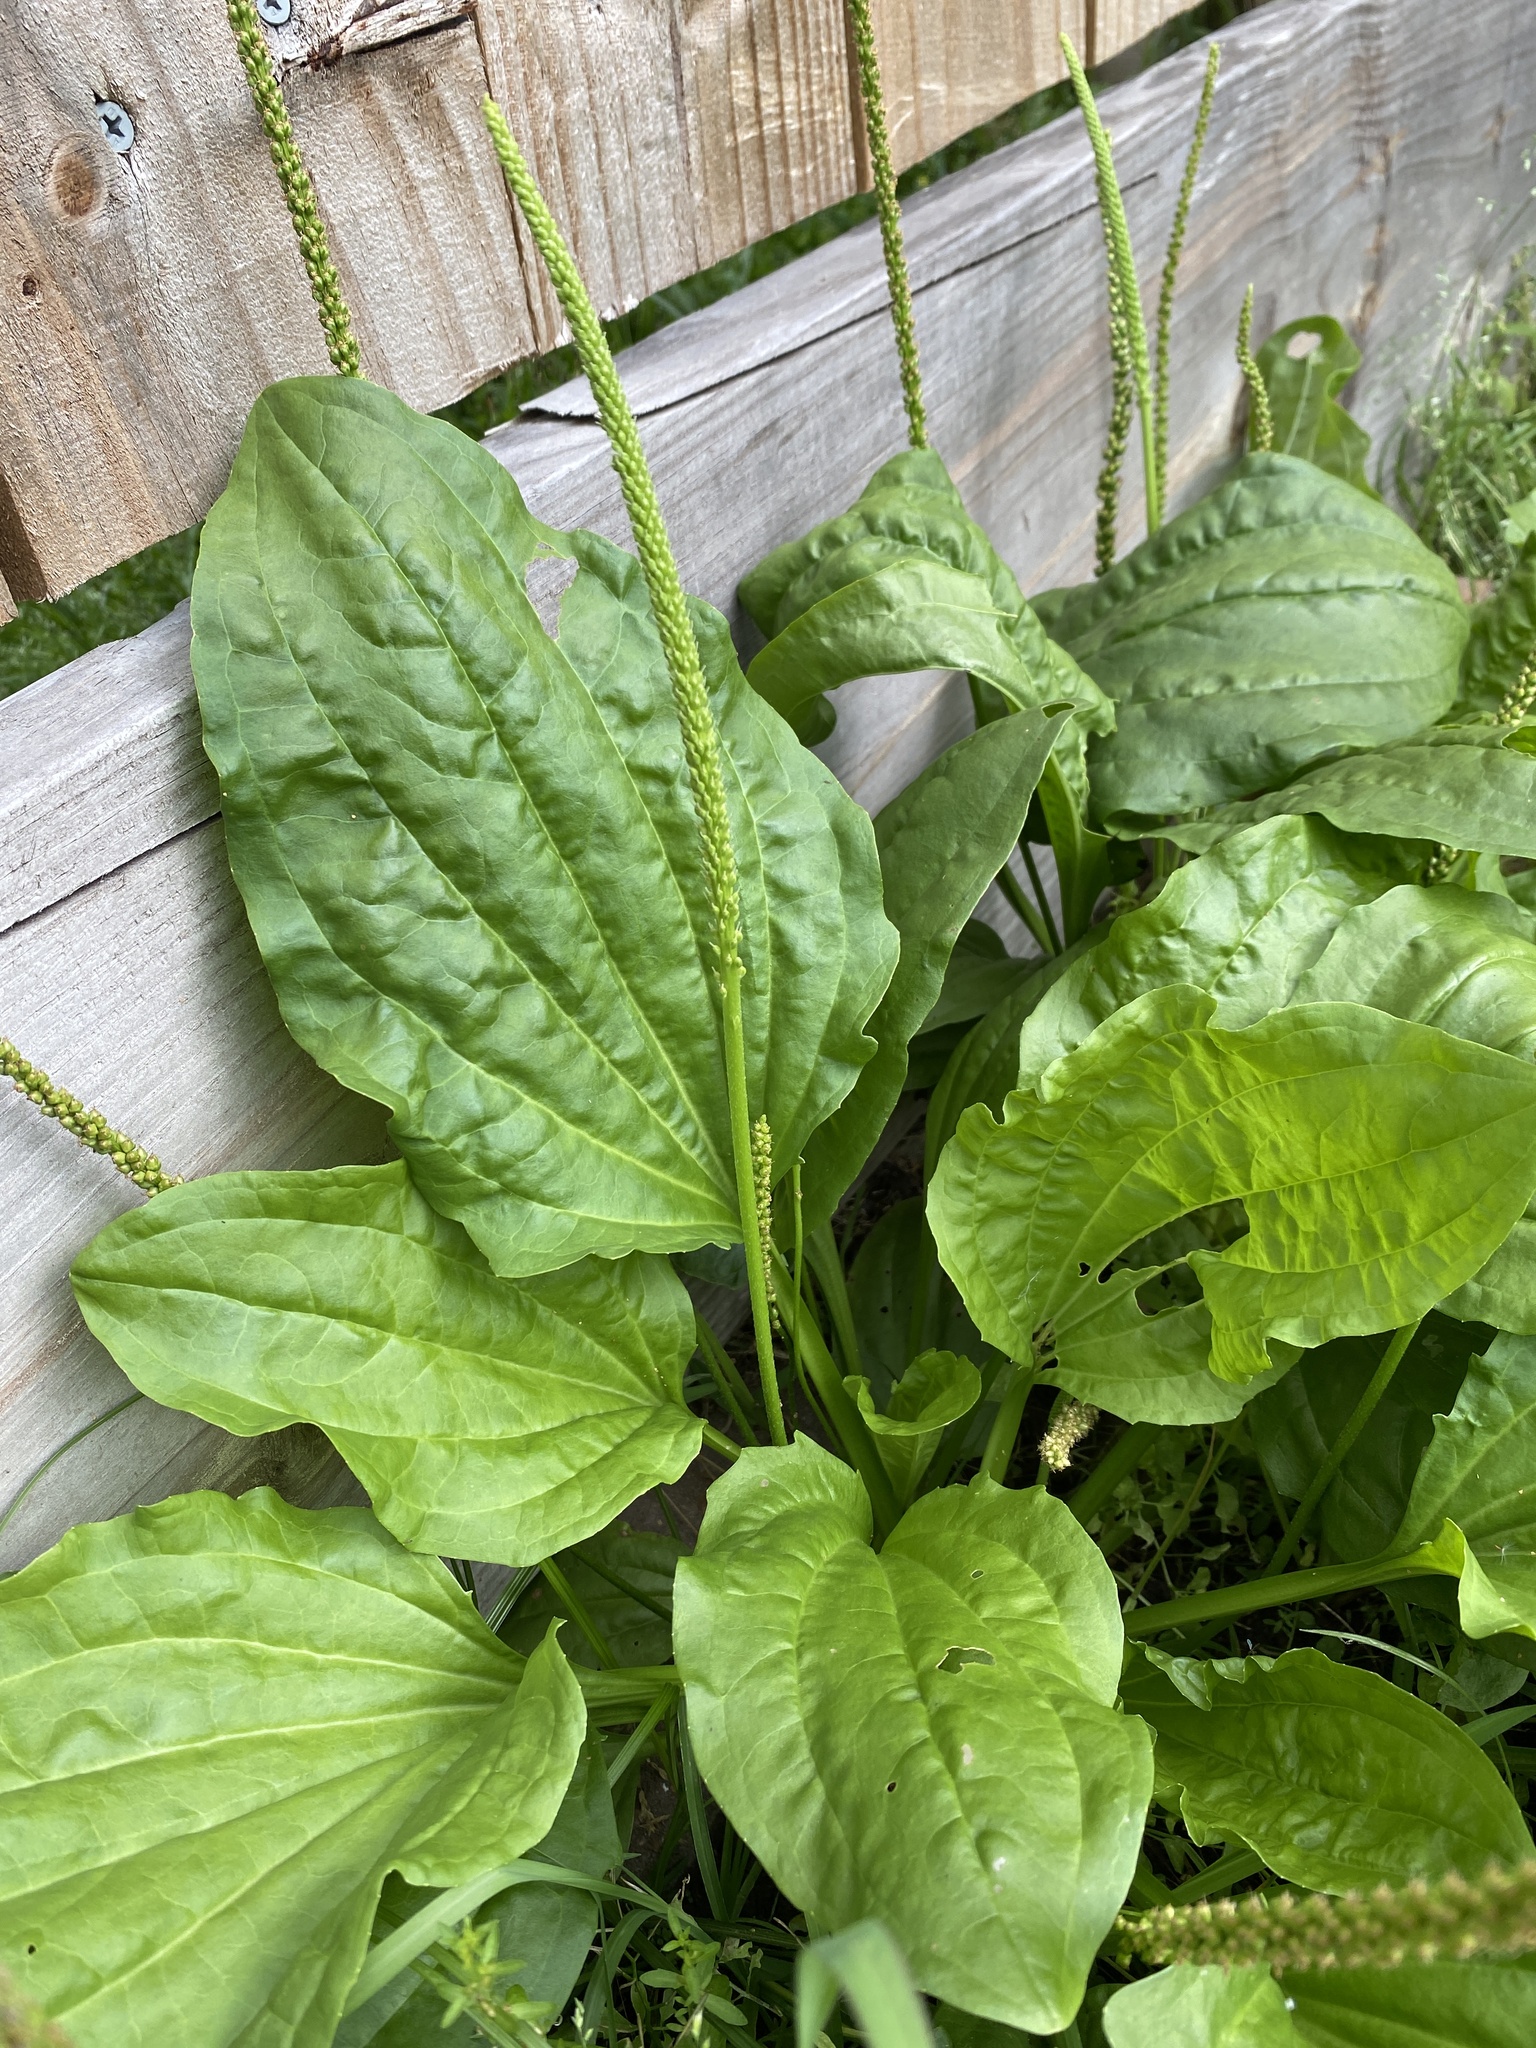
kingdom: Plantae
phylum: Tracheophyta
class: Magnoliopsida
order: Lamiales
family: Plantaginaceae
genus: Plantago
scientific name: Plantago major
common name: Common plantain
